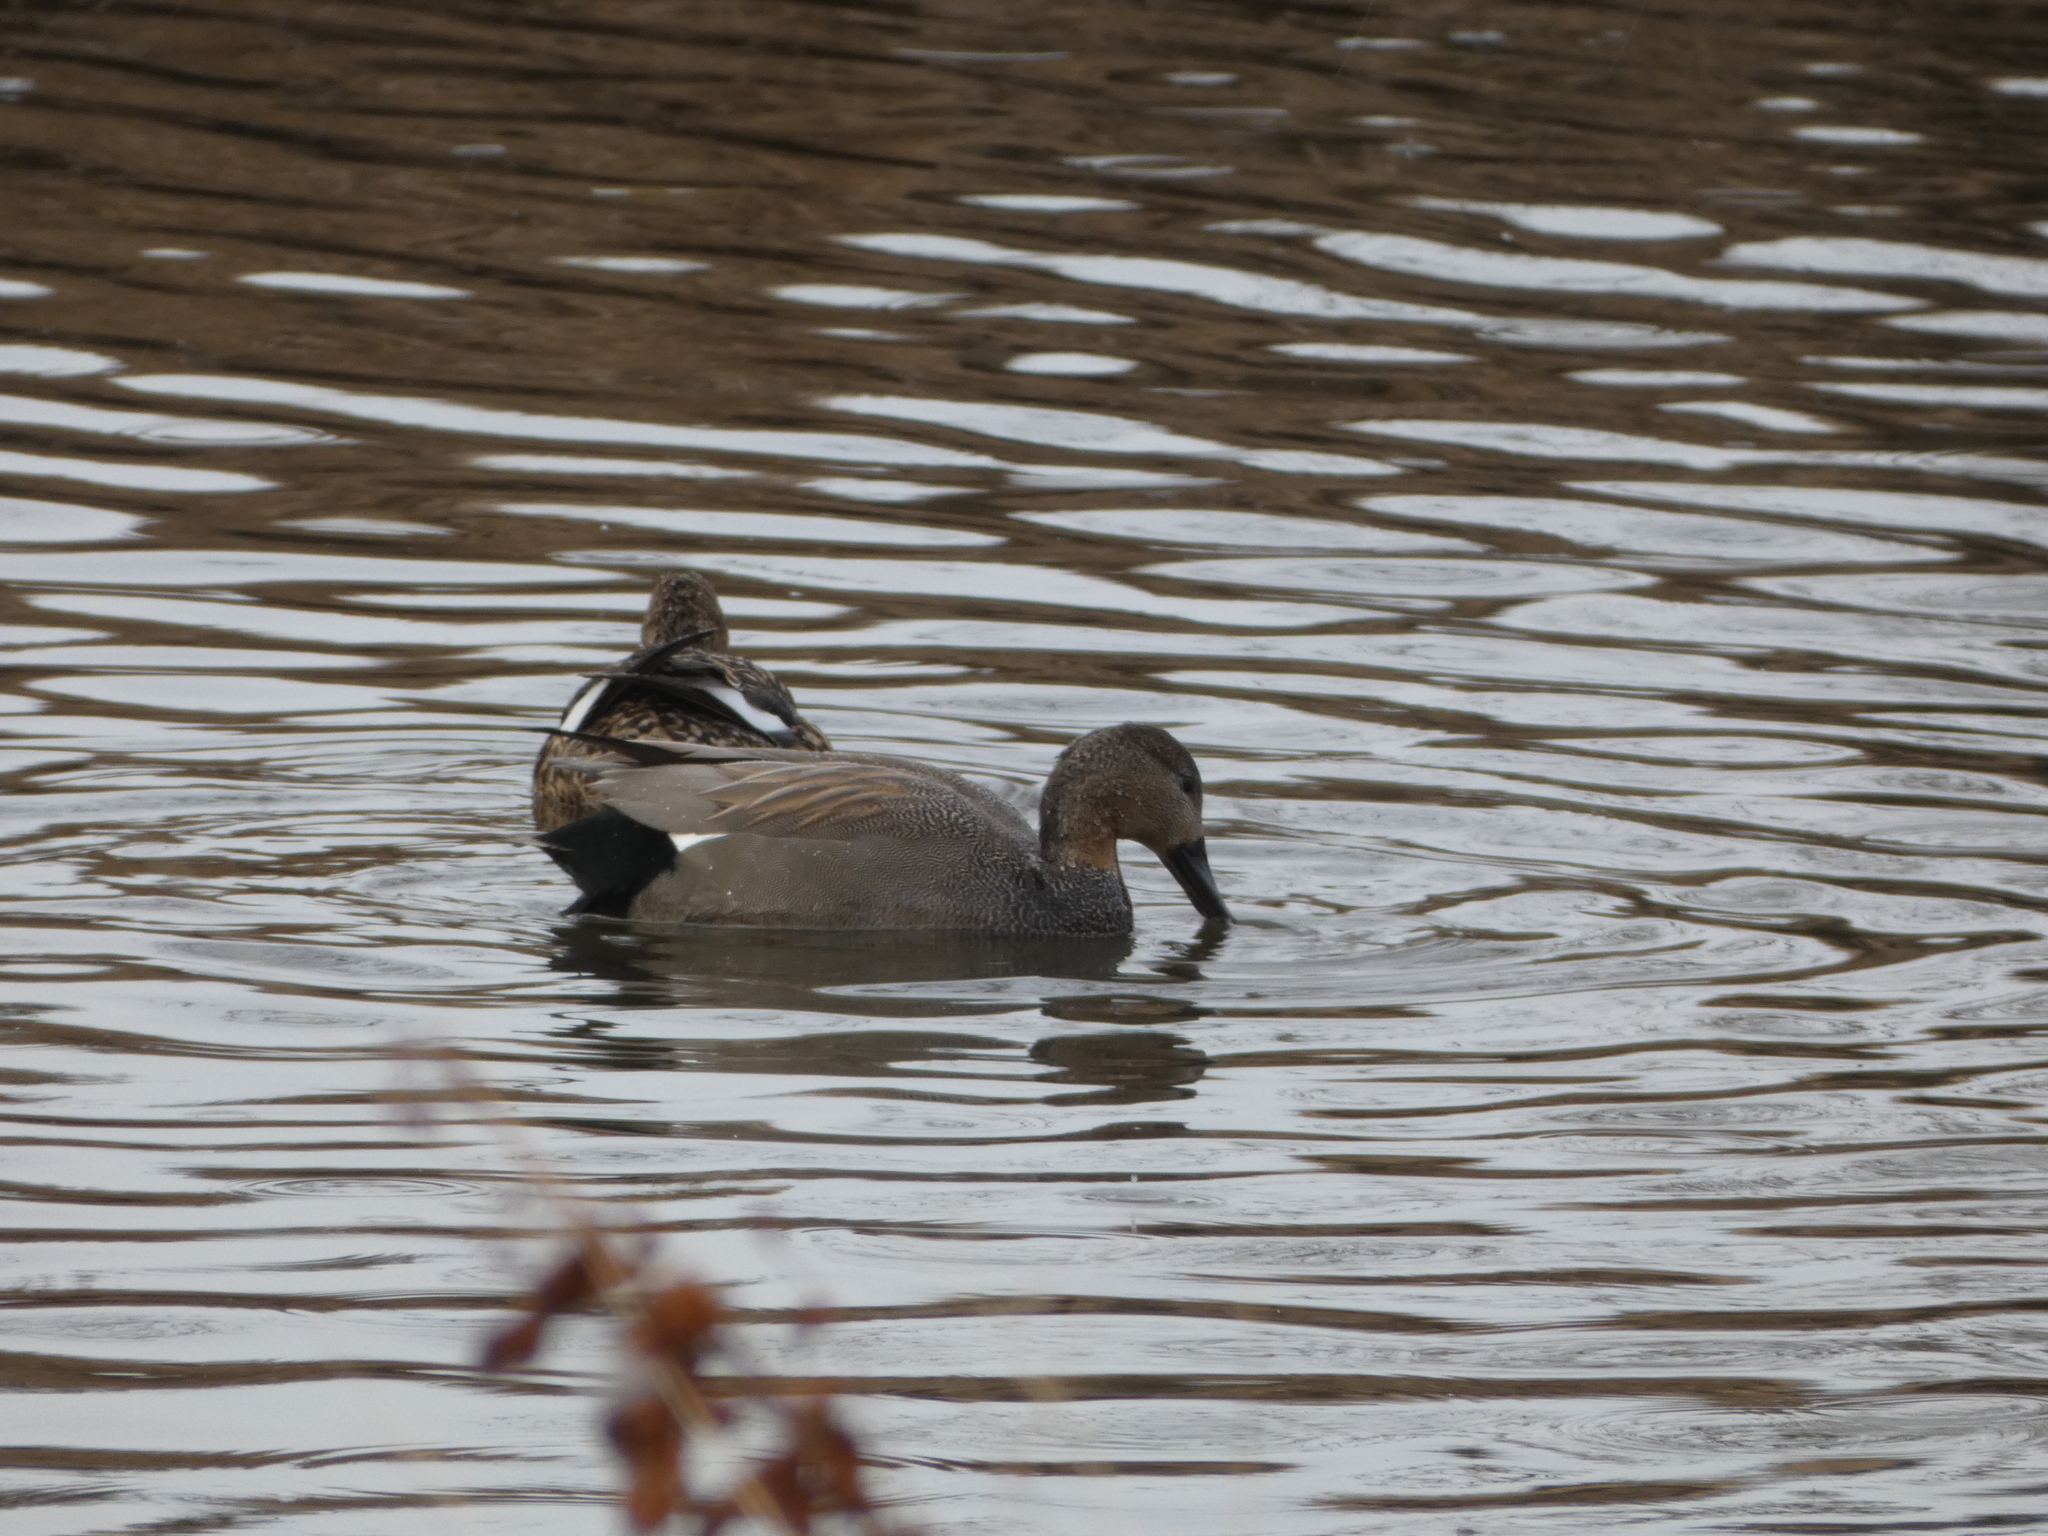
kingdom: Animalia
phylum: Chordata
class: Aves
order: Anseriformes
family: Anatidae
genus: Mareca
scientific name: Mareca strepera
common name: Gadwall
